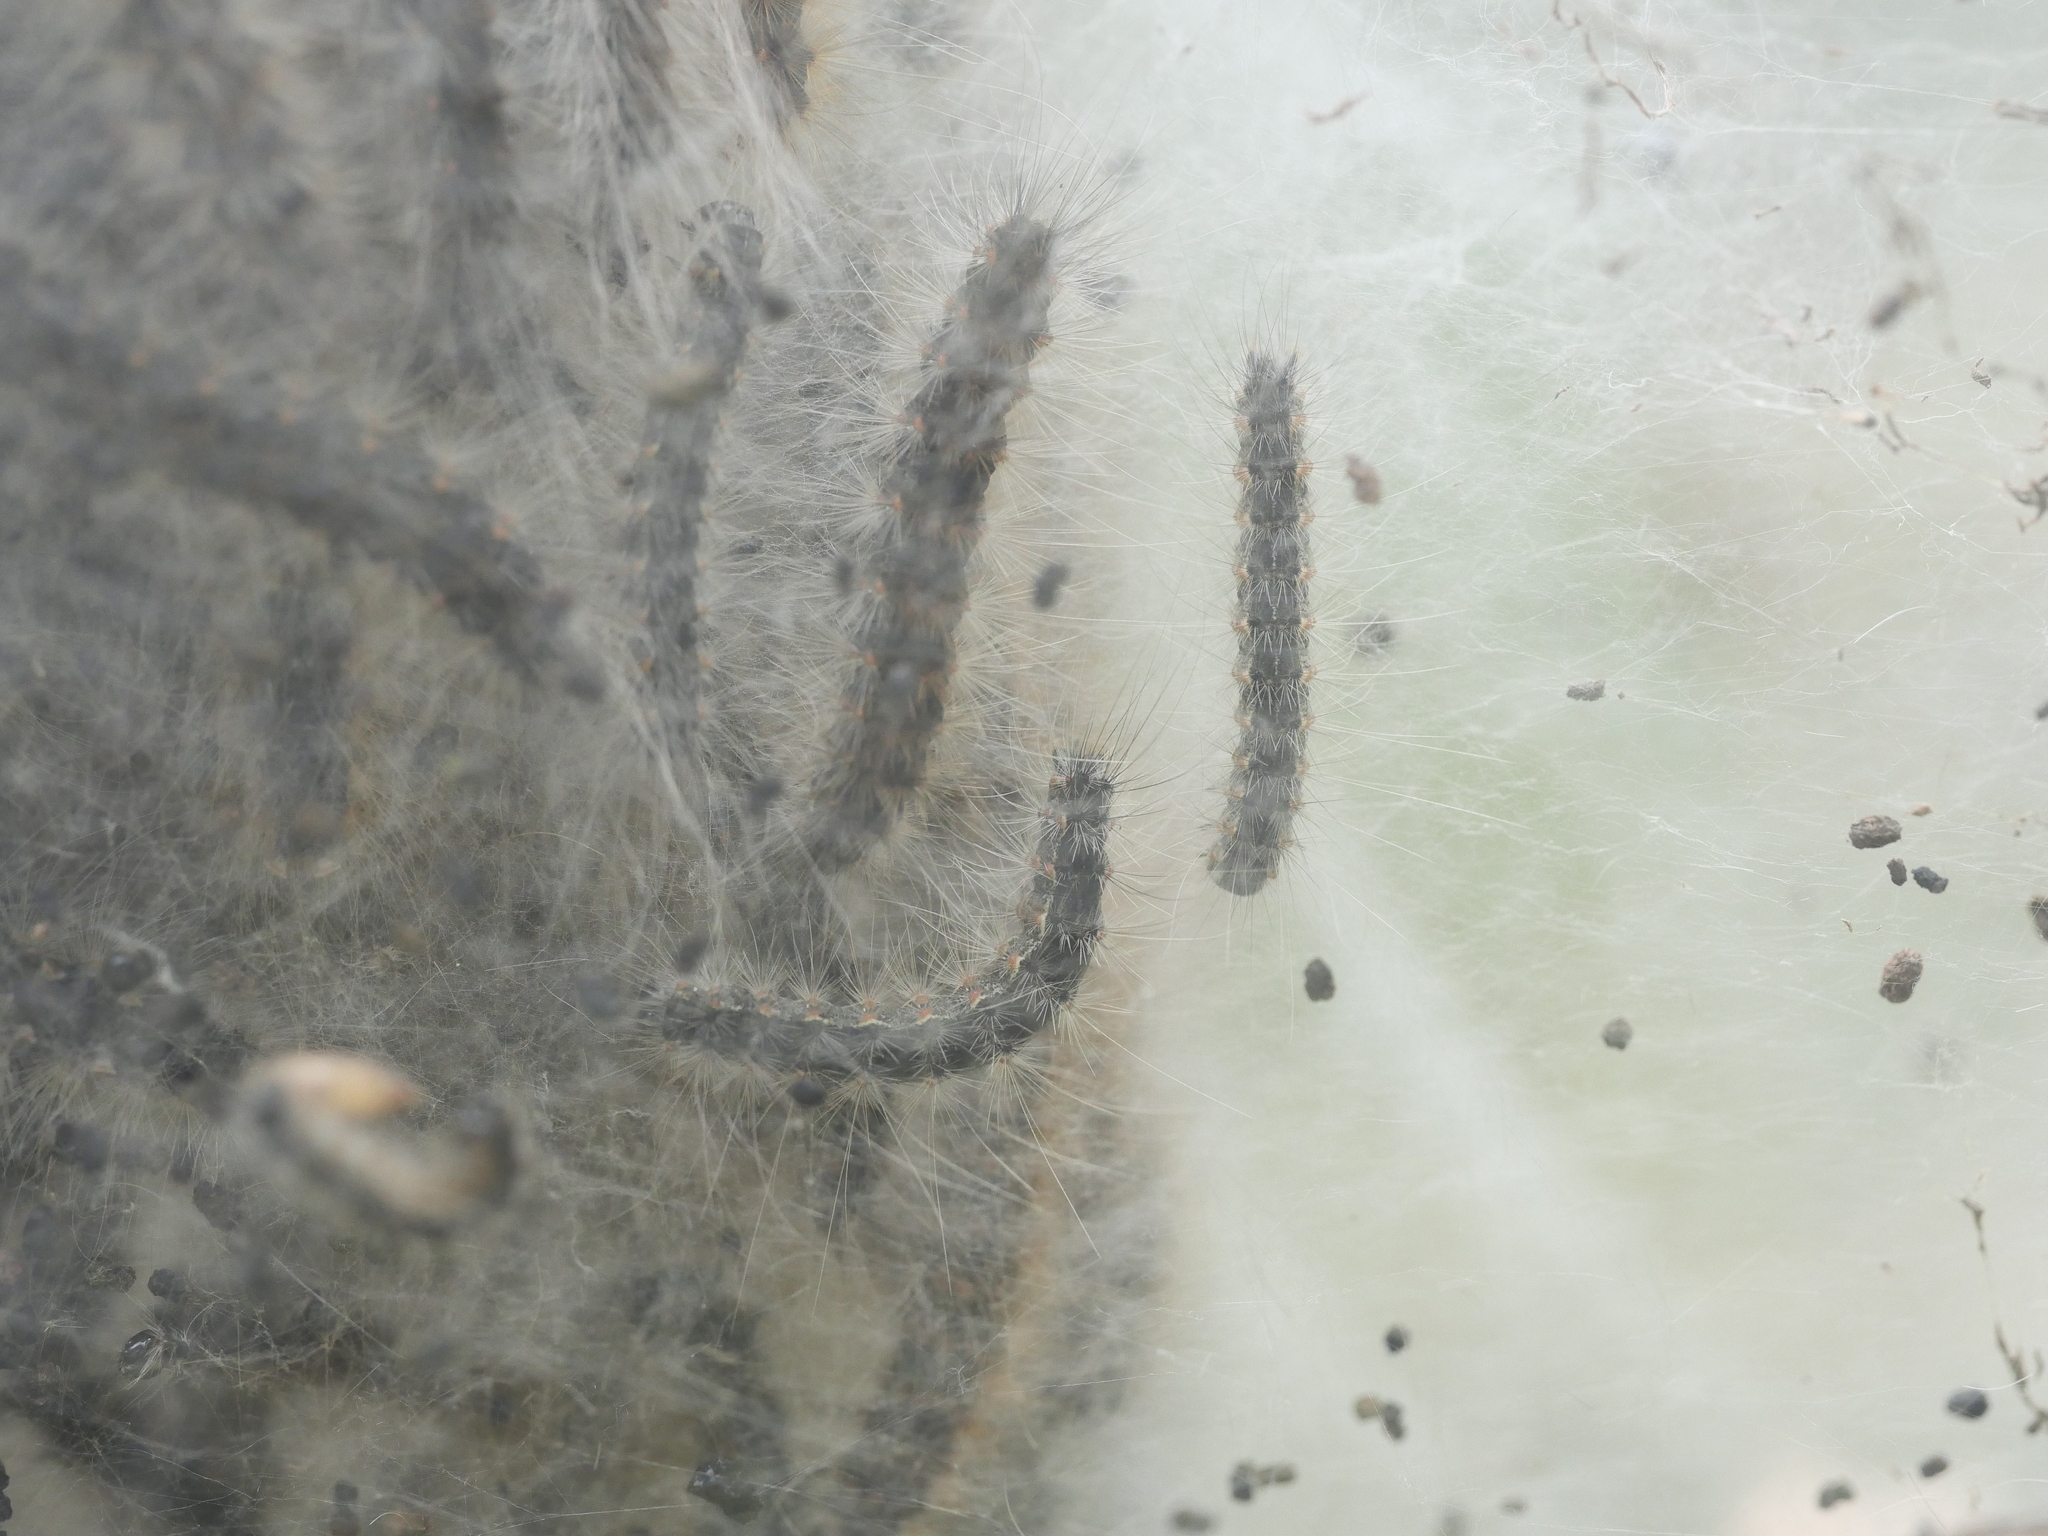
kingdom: Animalia
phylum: Arthropoda
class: Insecta
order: Lepidoptera
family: Erebidae
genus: Hyphantria
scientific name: Hyphantria cunea
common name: American white moth
